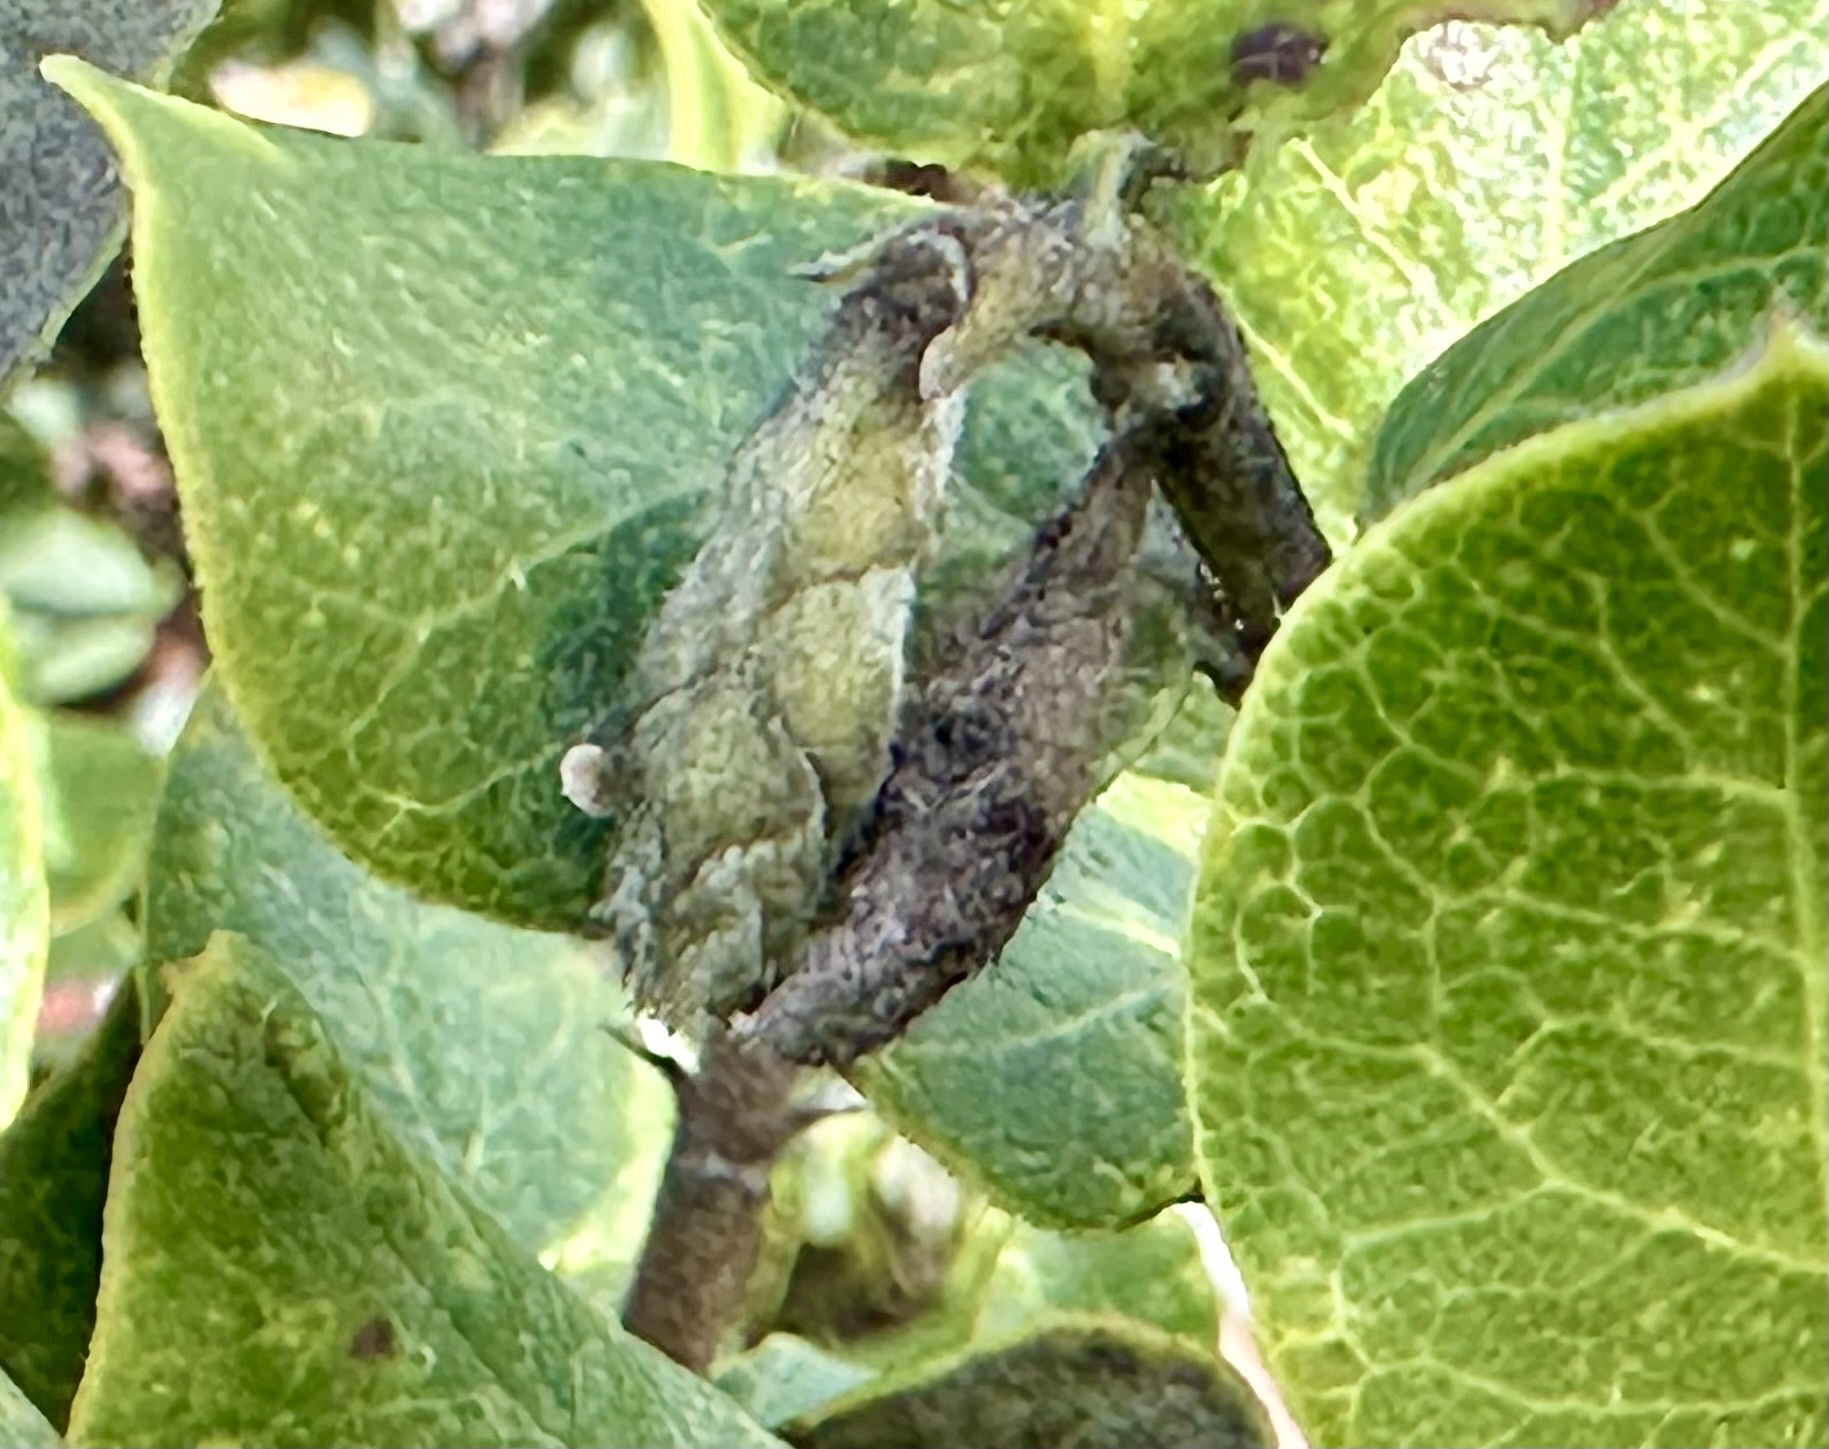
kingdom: Plantae
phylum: Tracheophyta
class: Magnoliopsida
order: Garryales
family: Garryaceae
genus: Garrya
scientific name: Garrya elliptica
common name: Silk-tassel
